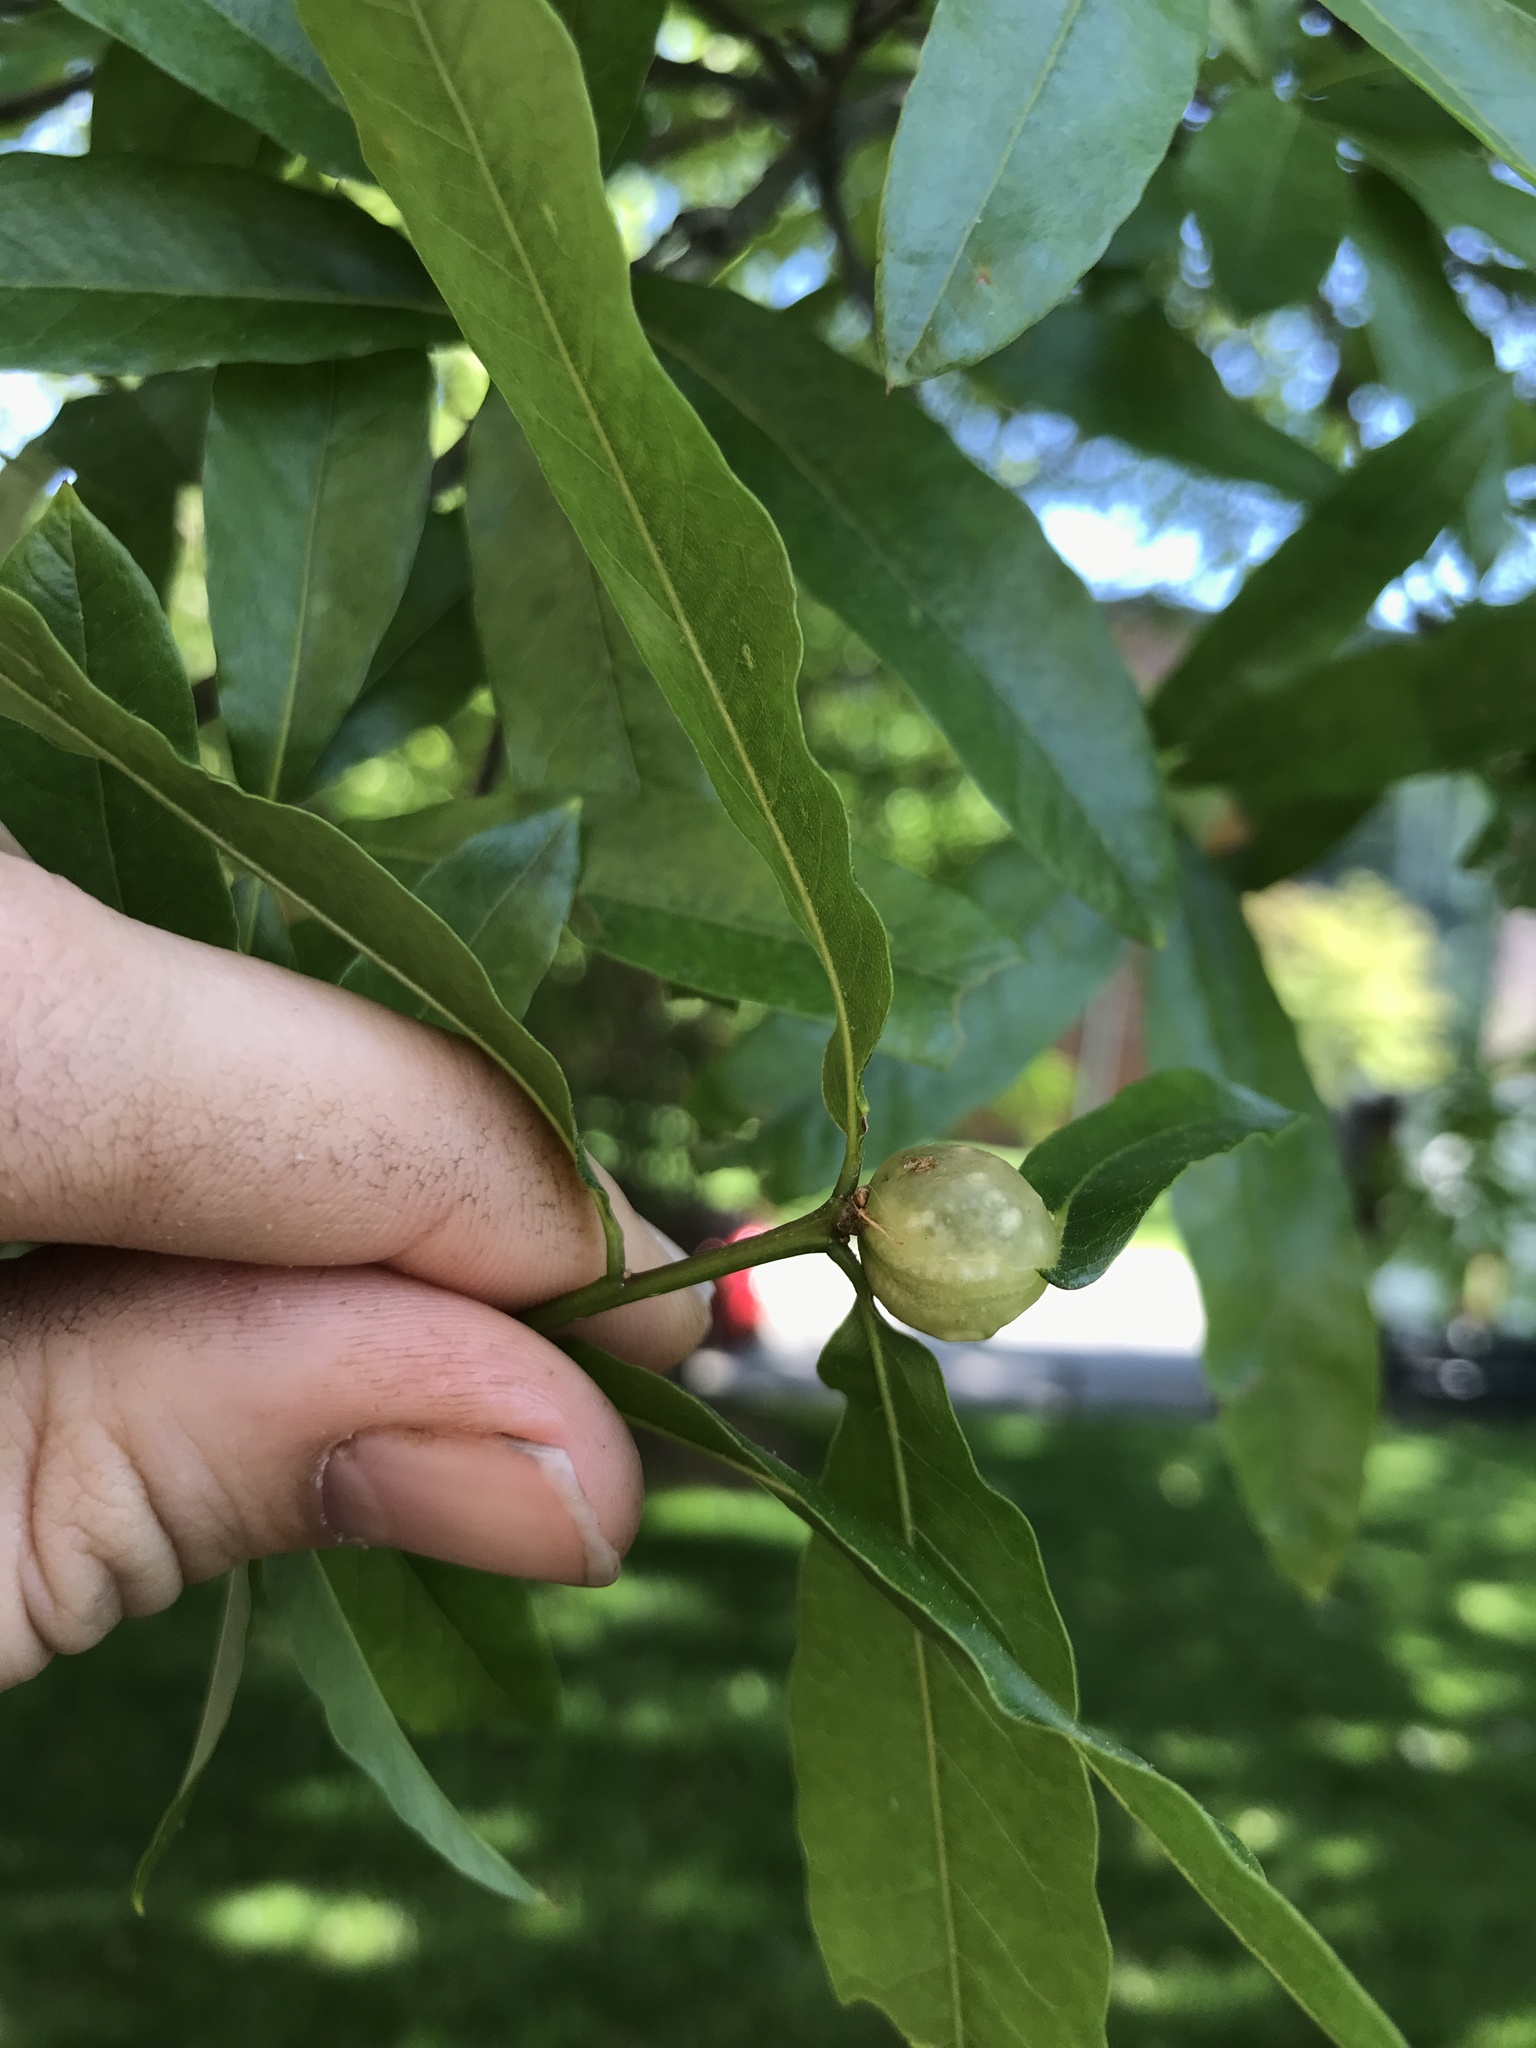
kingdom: Animalia
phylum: Arthropoda
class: Insecta
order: Hymenoptera
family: Cynipidae
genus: Dryocosmus
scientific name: Dryocosmus
